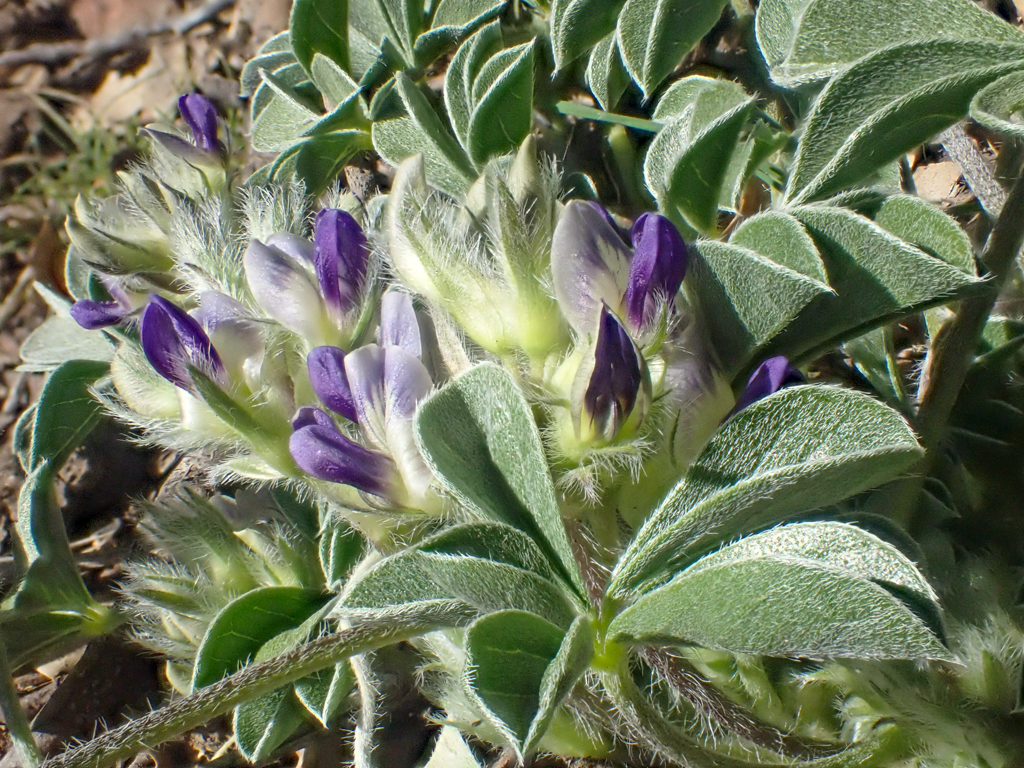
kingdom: Plantae
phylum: Tracheophyta
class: Magnoliopsida
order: Fabales
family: Fabaceae
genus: Pediomelum
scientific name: Pediomelum californicum
